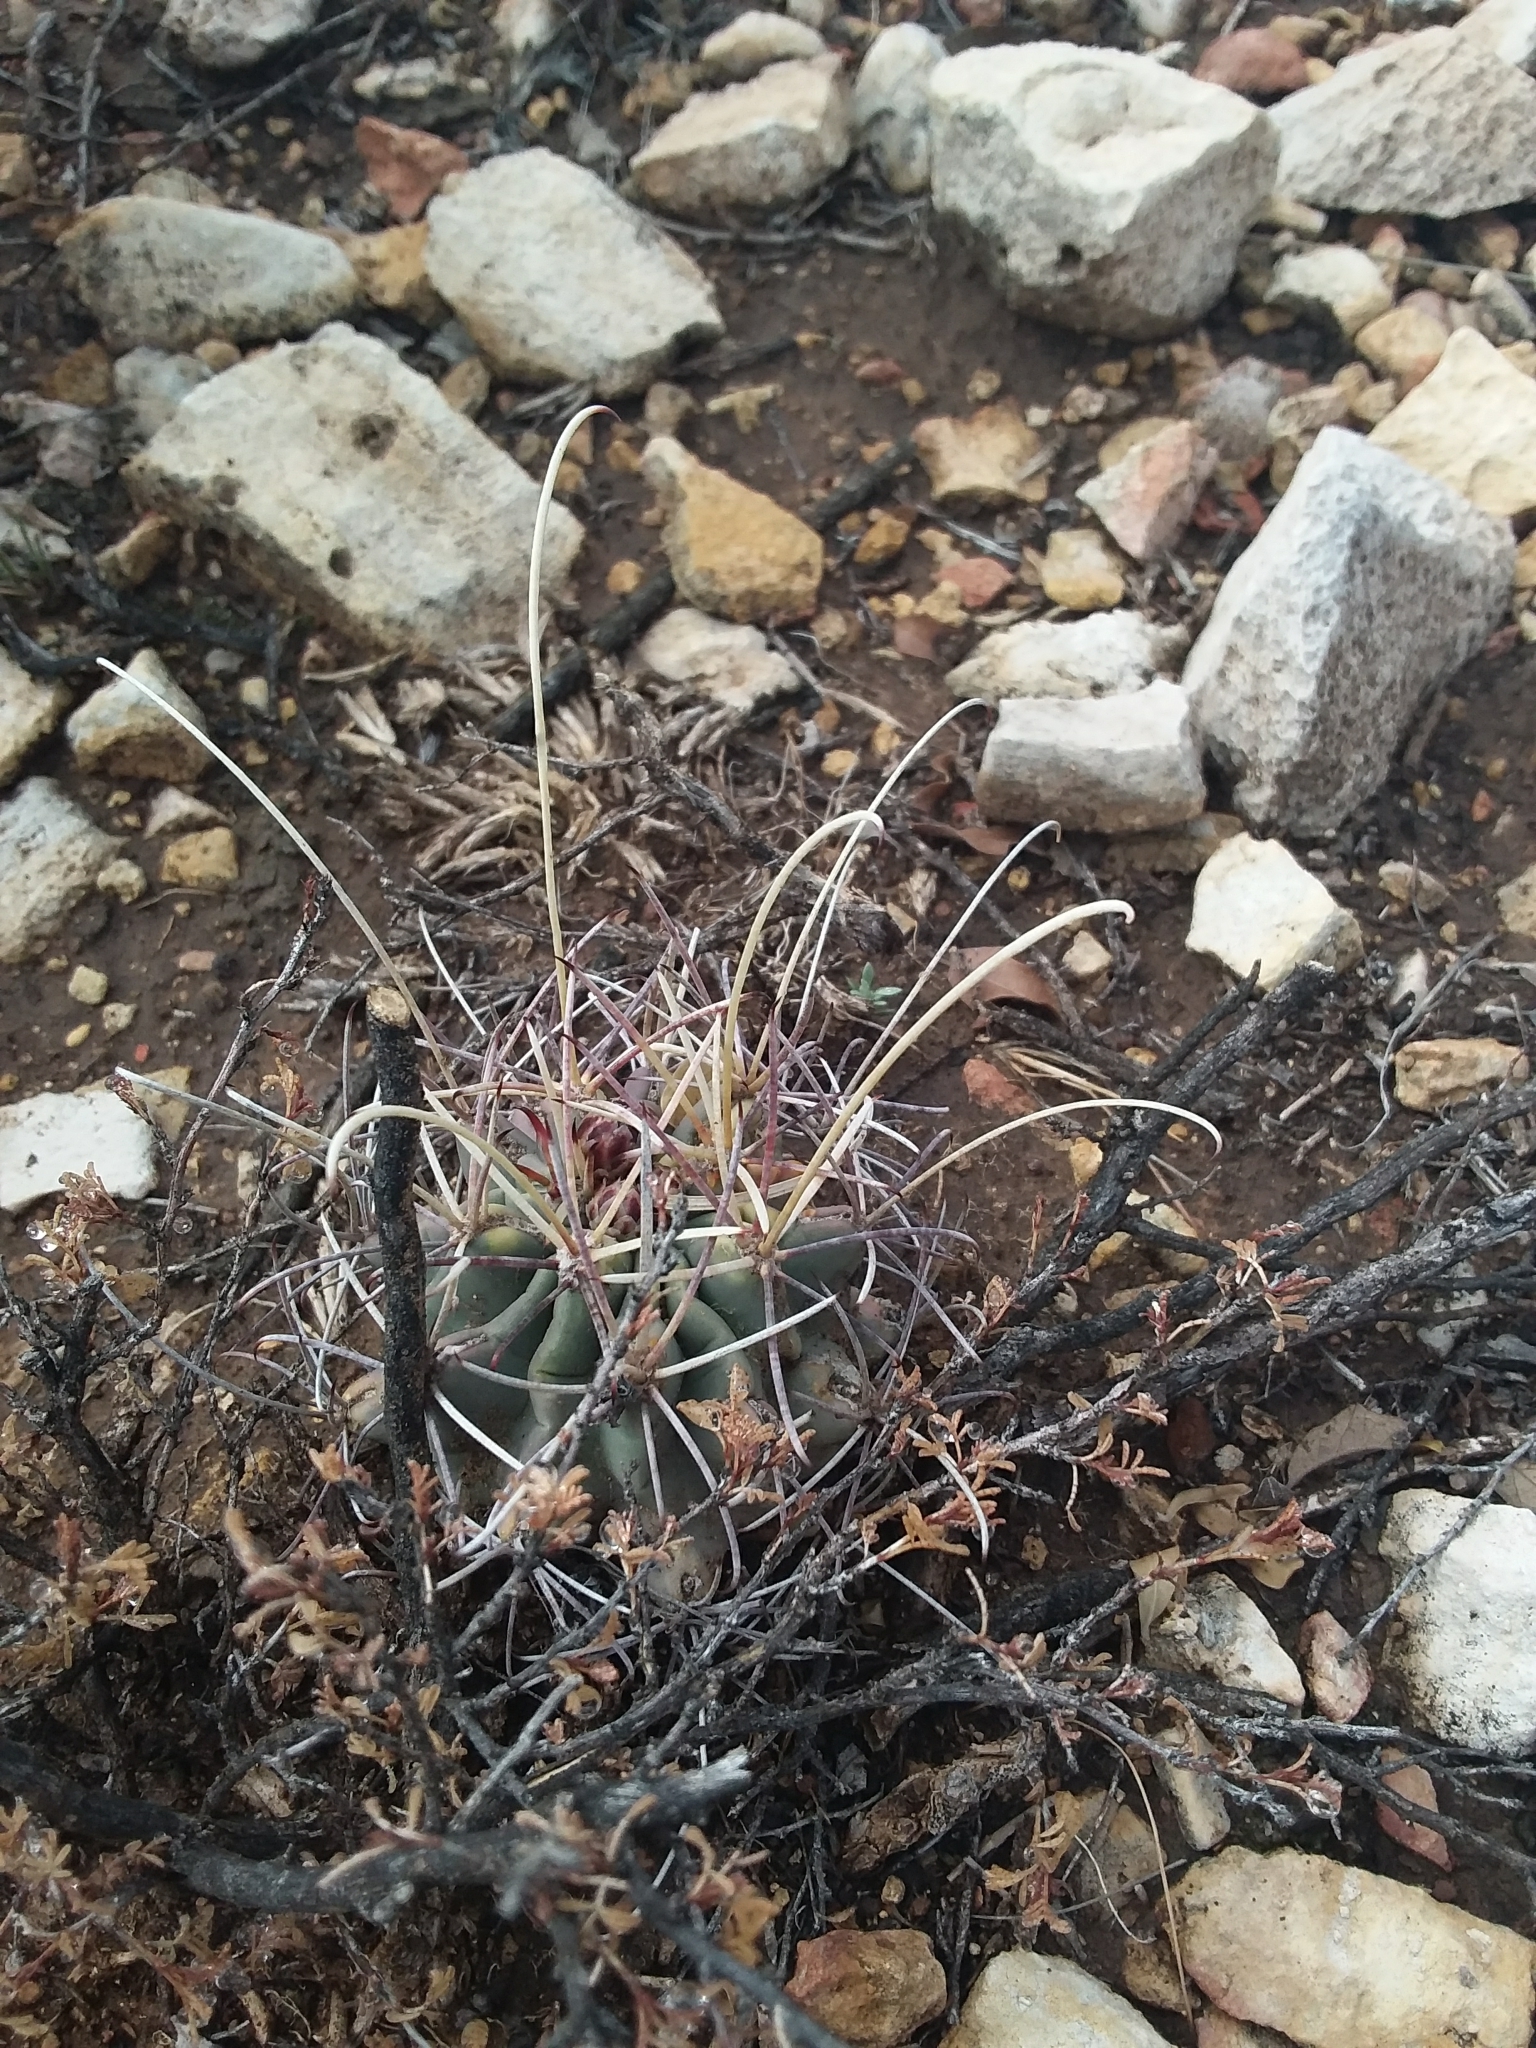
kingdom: Plantae
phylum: Tracheophyta
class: Magnoliopsida
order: Caryophyllales
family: Cactaceae
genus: Ferocactus
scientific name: Ferocactus uncinatus
